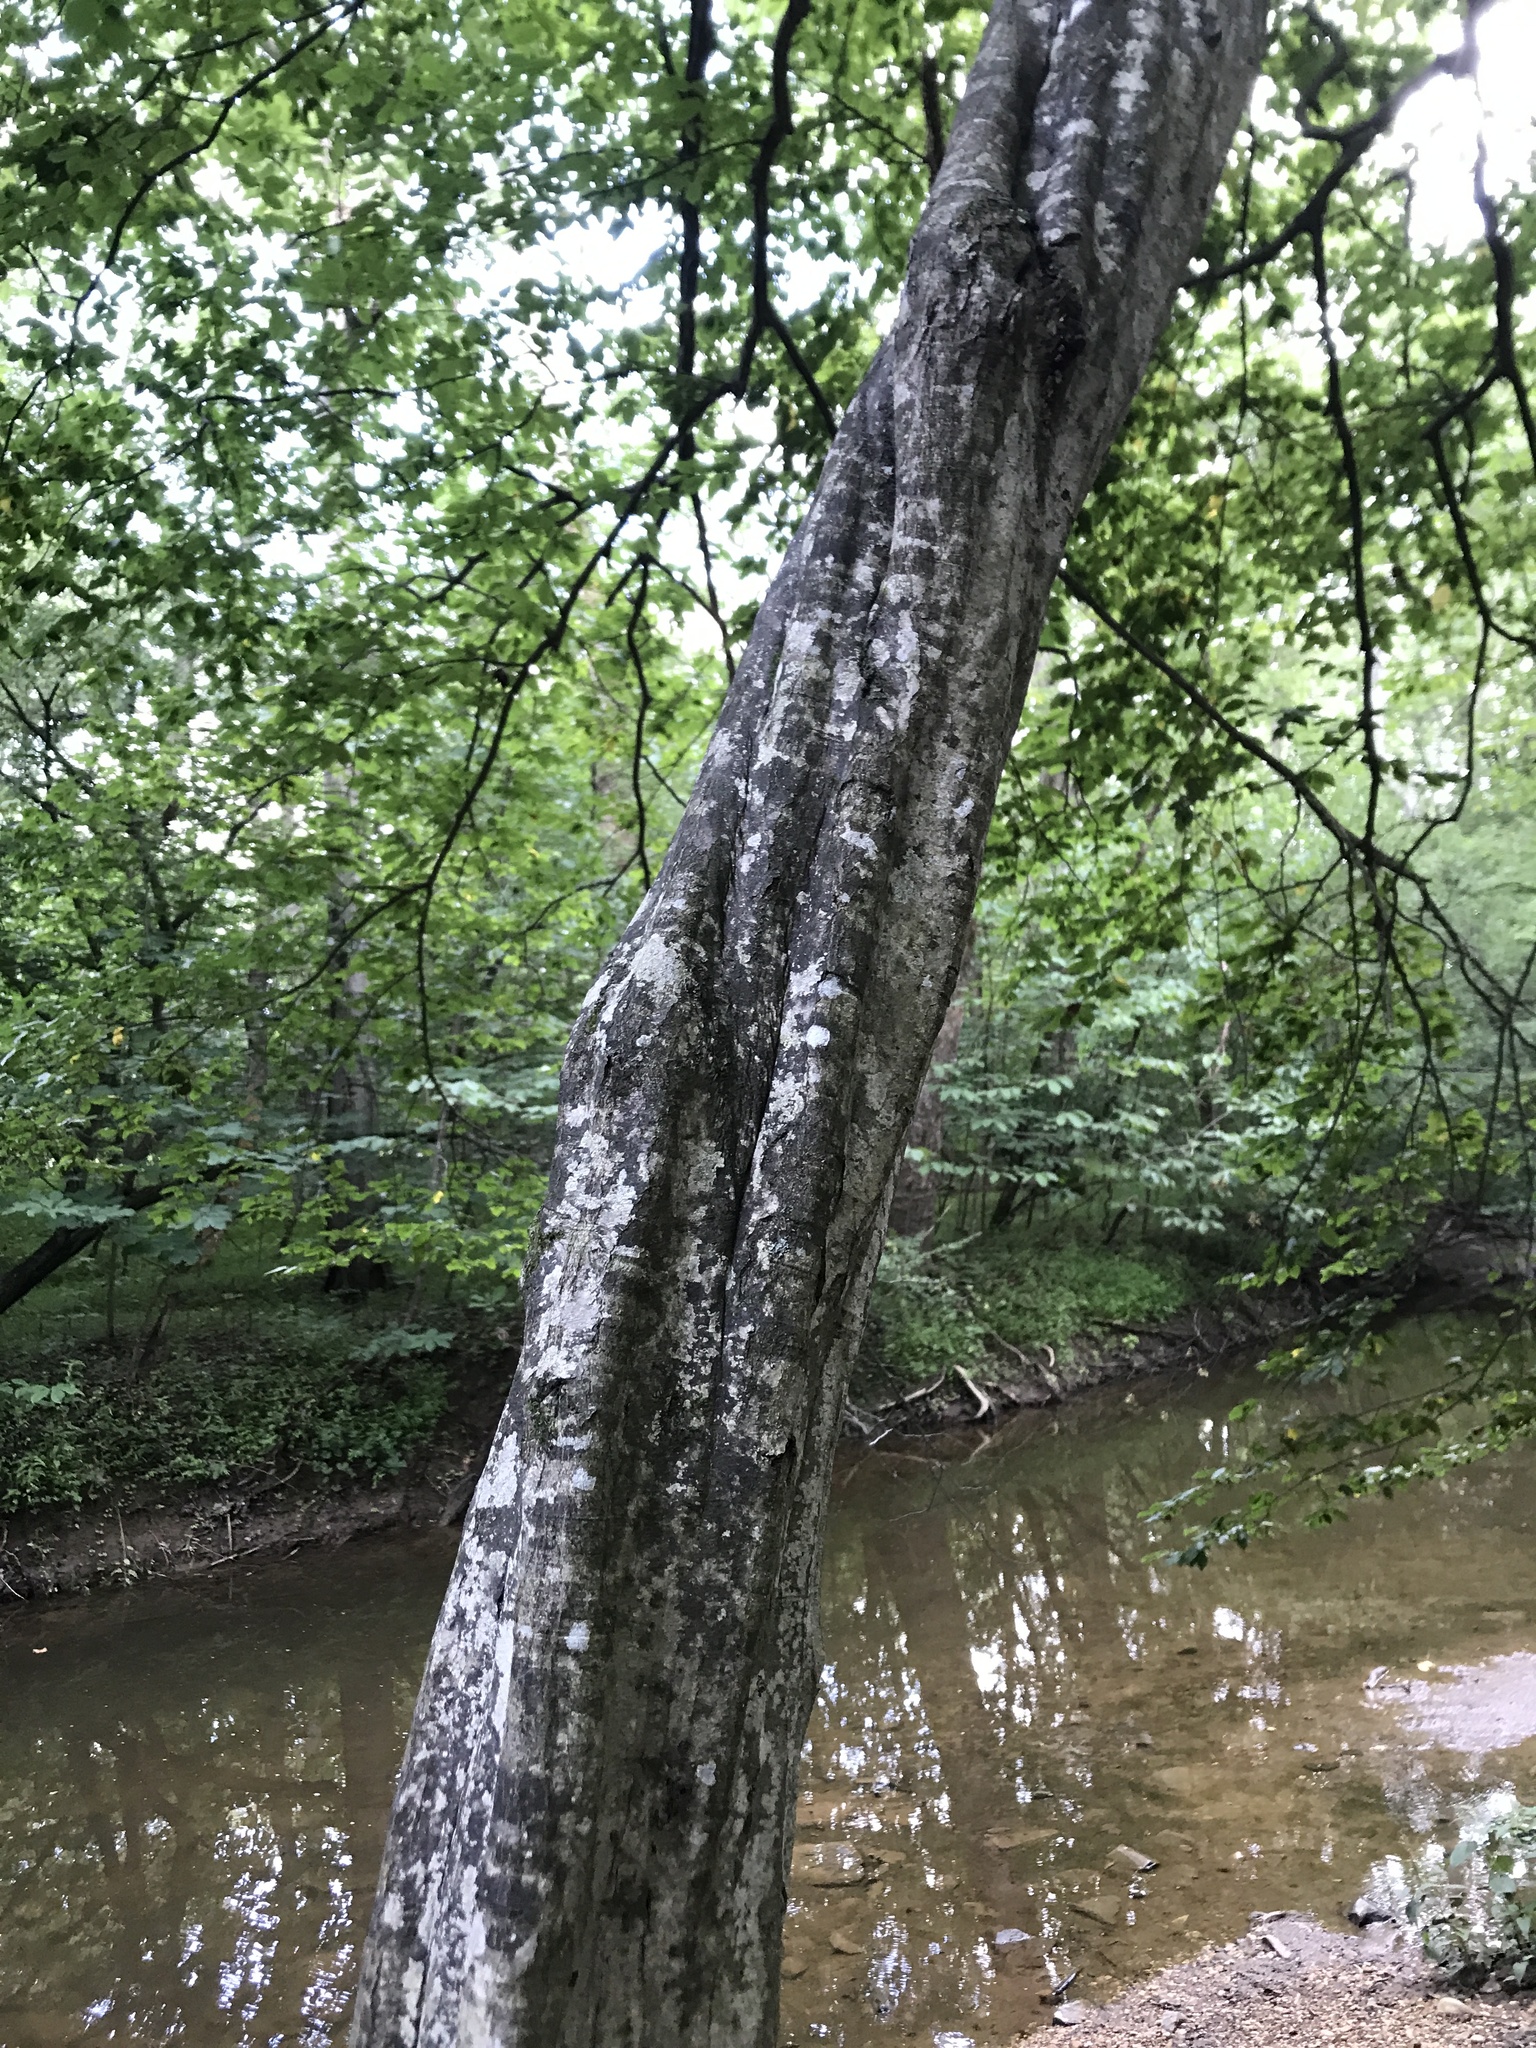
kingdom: Plantae
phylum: Tracheophyta
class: Magnoliopsida
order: Fagales
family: Betulaceae
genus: Carpinus
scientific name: Carpinus caroliniana
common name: American hornbeam
